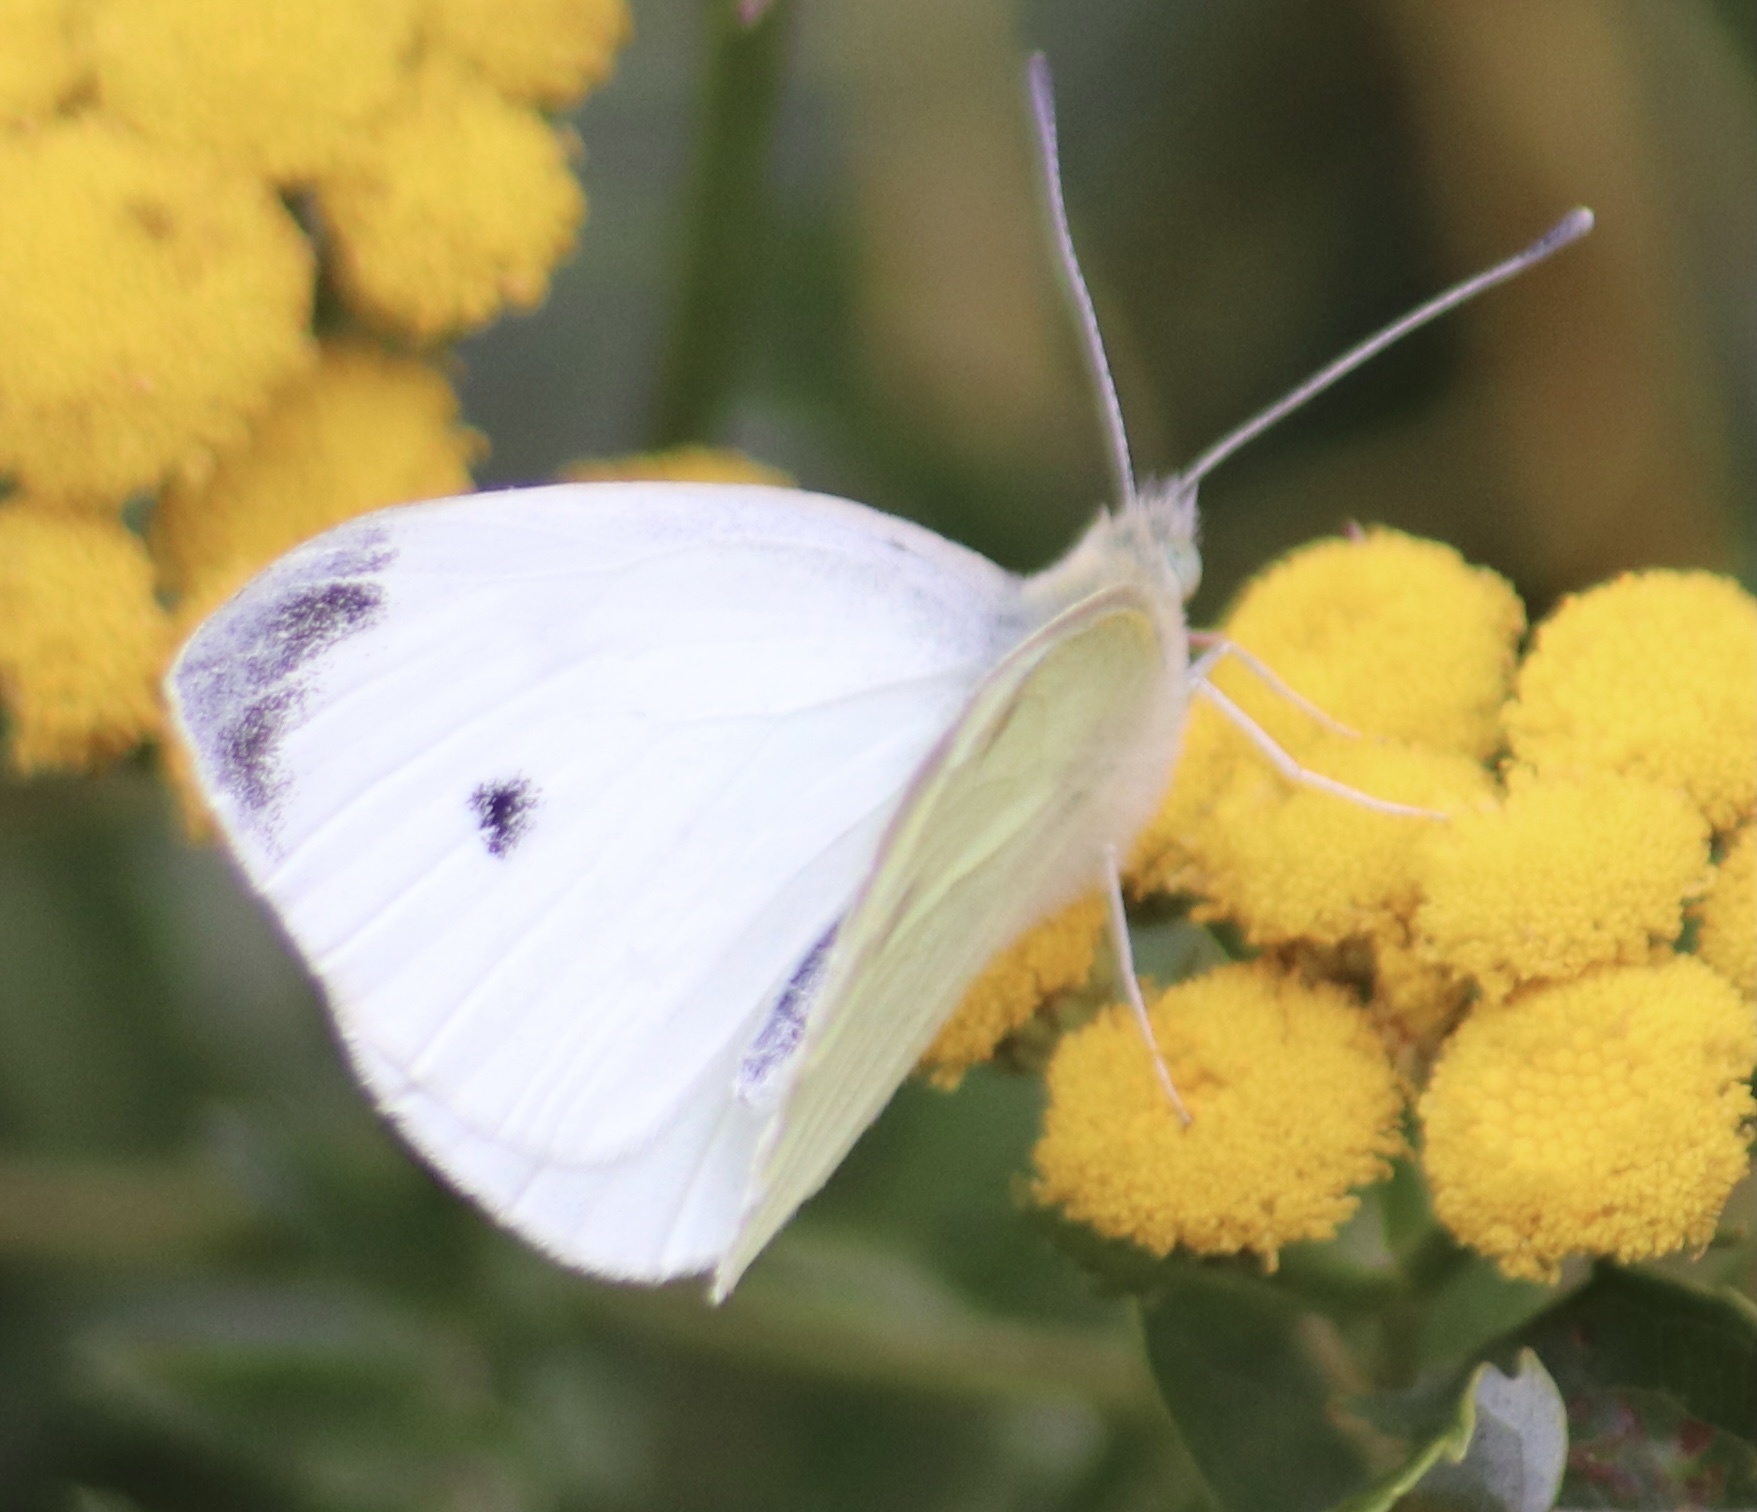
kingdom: Animalia
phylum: Arthropoda
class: Insecta
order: Lepidoptera
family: Pieridae
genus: Pieris
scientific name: Pieris rapae
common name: Small white
